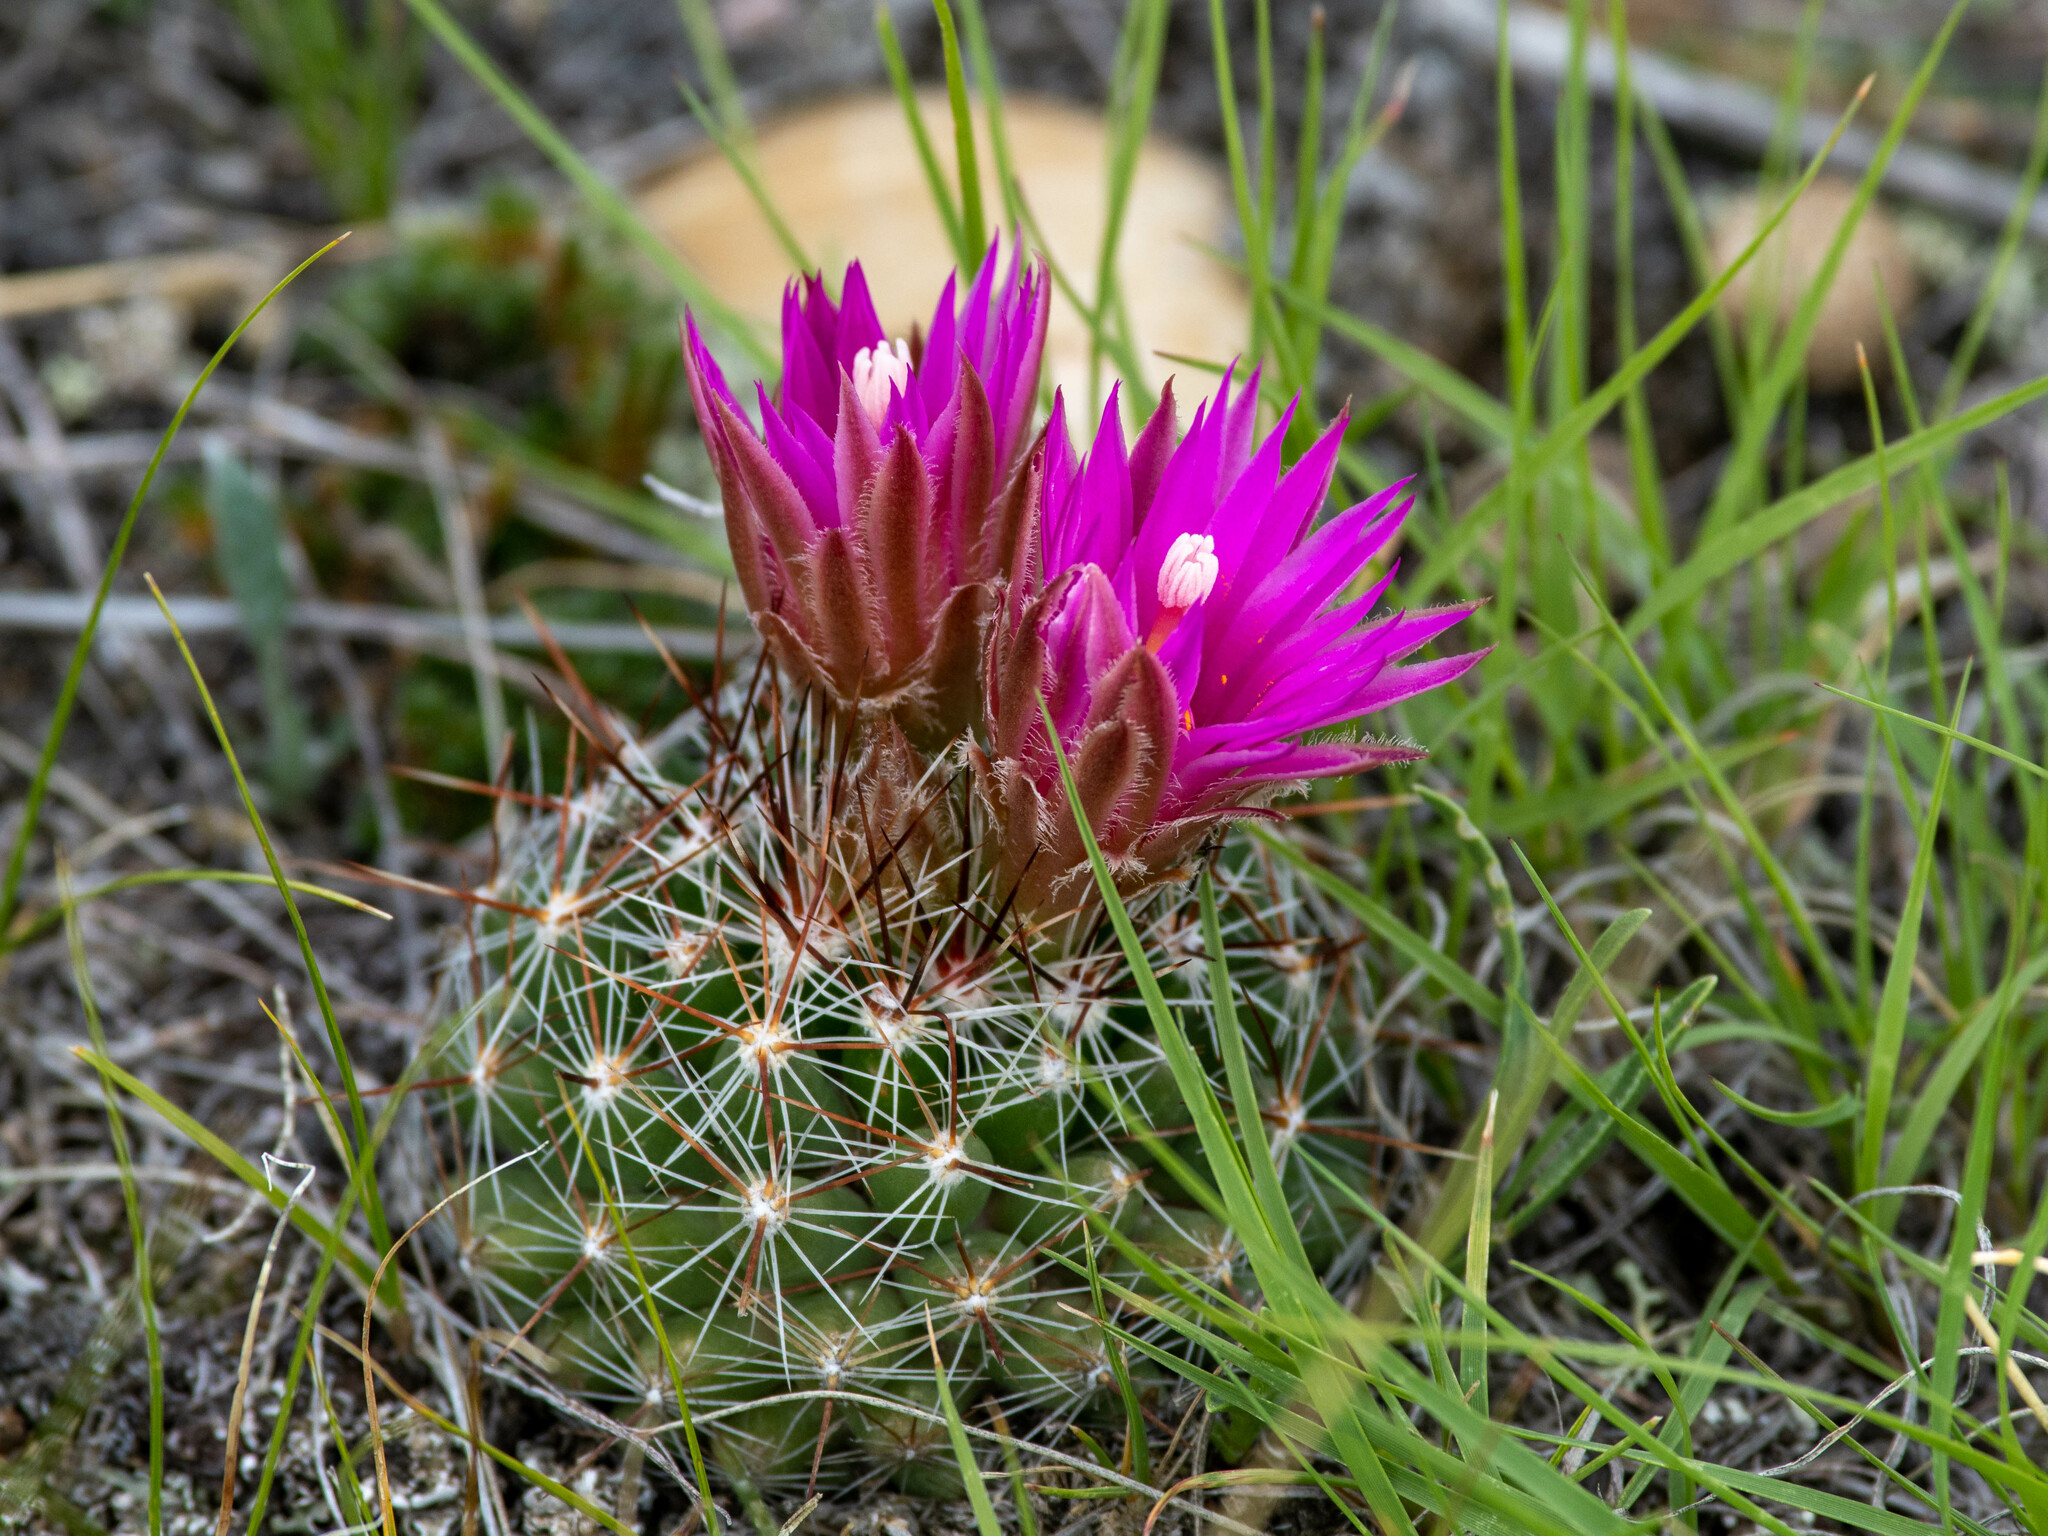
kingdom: Plantae
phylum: Tracheophyta
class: Magnoliopsida
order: Caryophyllales
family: Cactaceae
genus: Pelecyphora
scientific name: Pelecyphora vivipara
